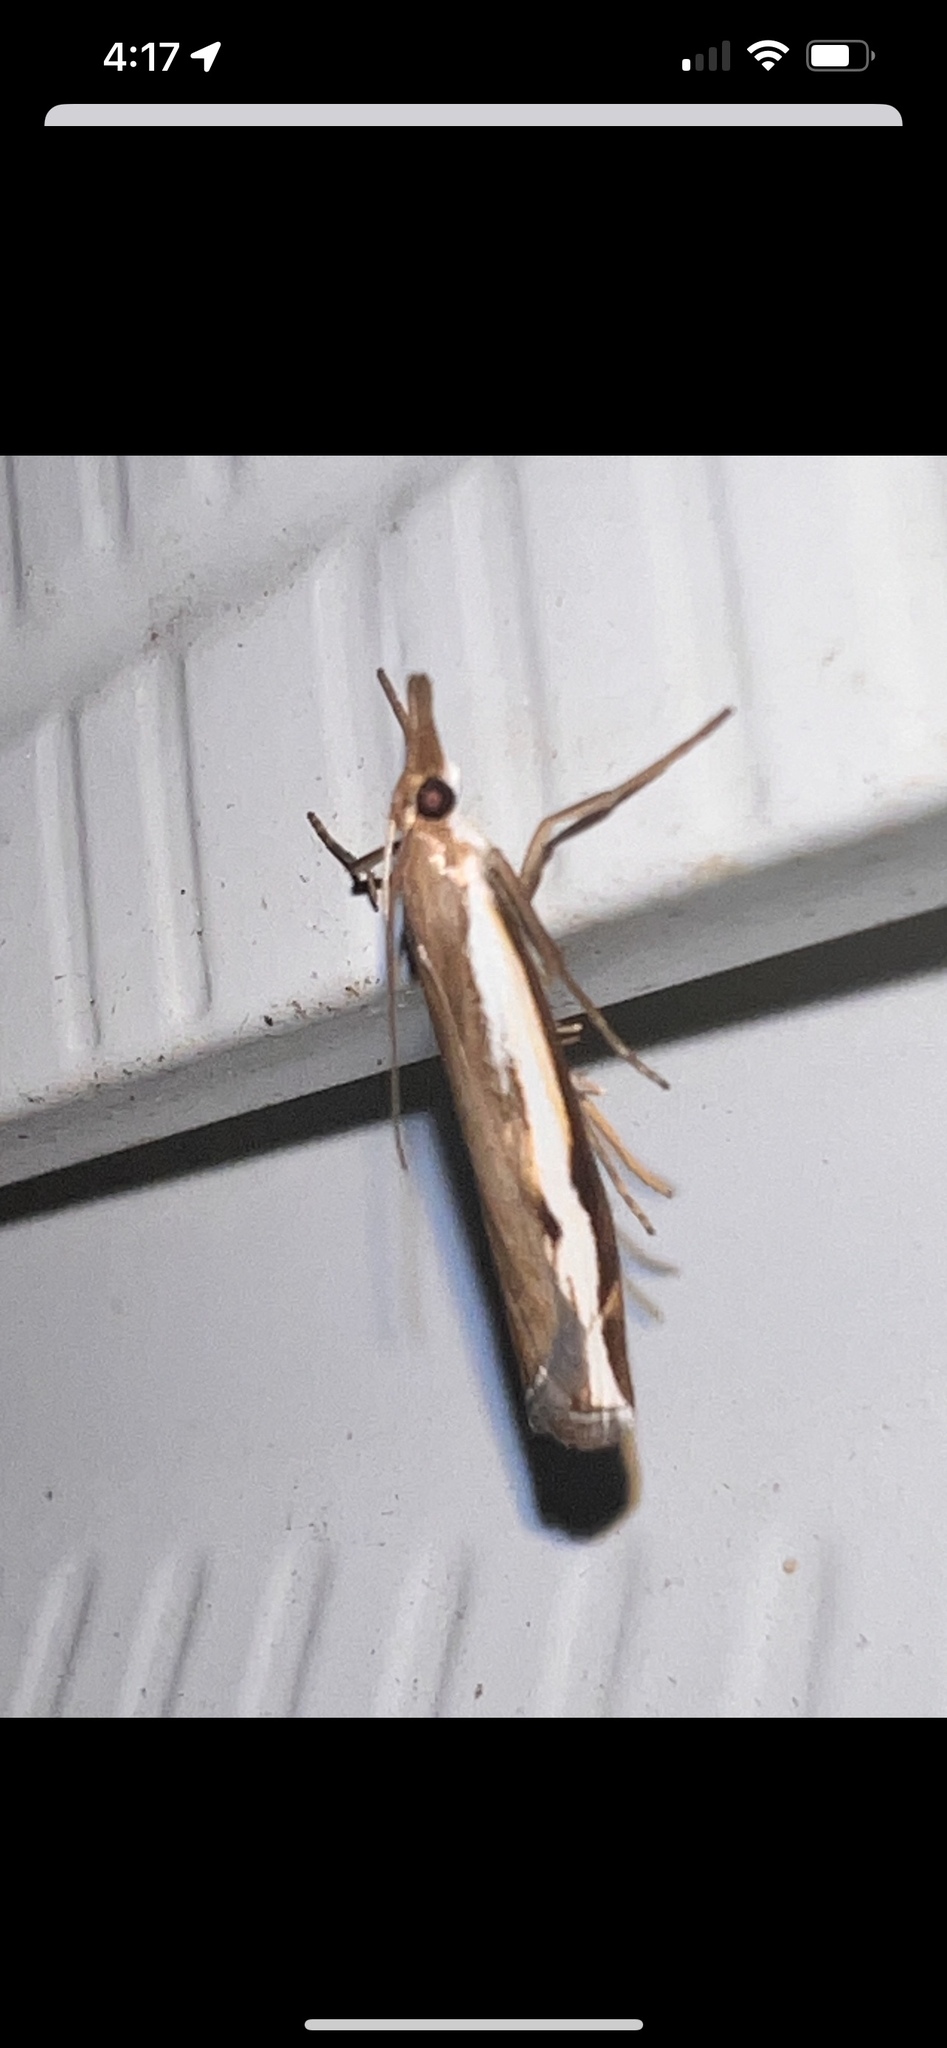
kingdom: Animalia
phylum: Arthropoda
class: Insecta
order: Lepidoptera
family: Crambidae
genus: Orocrambus
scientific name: Orocrambus flexuosellus
